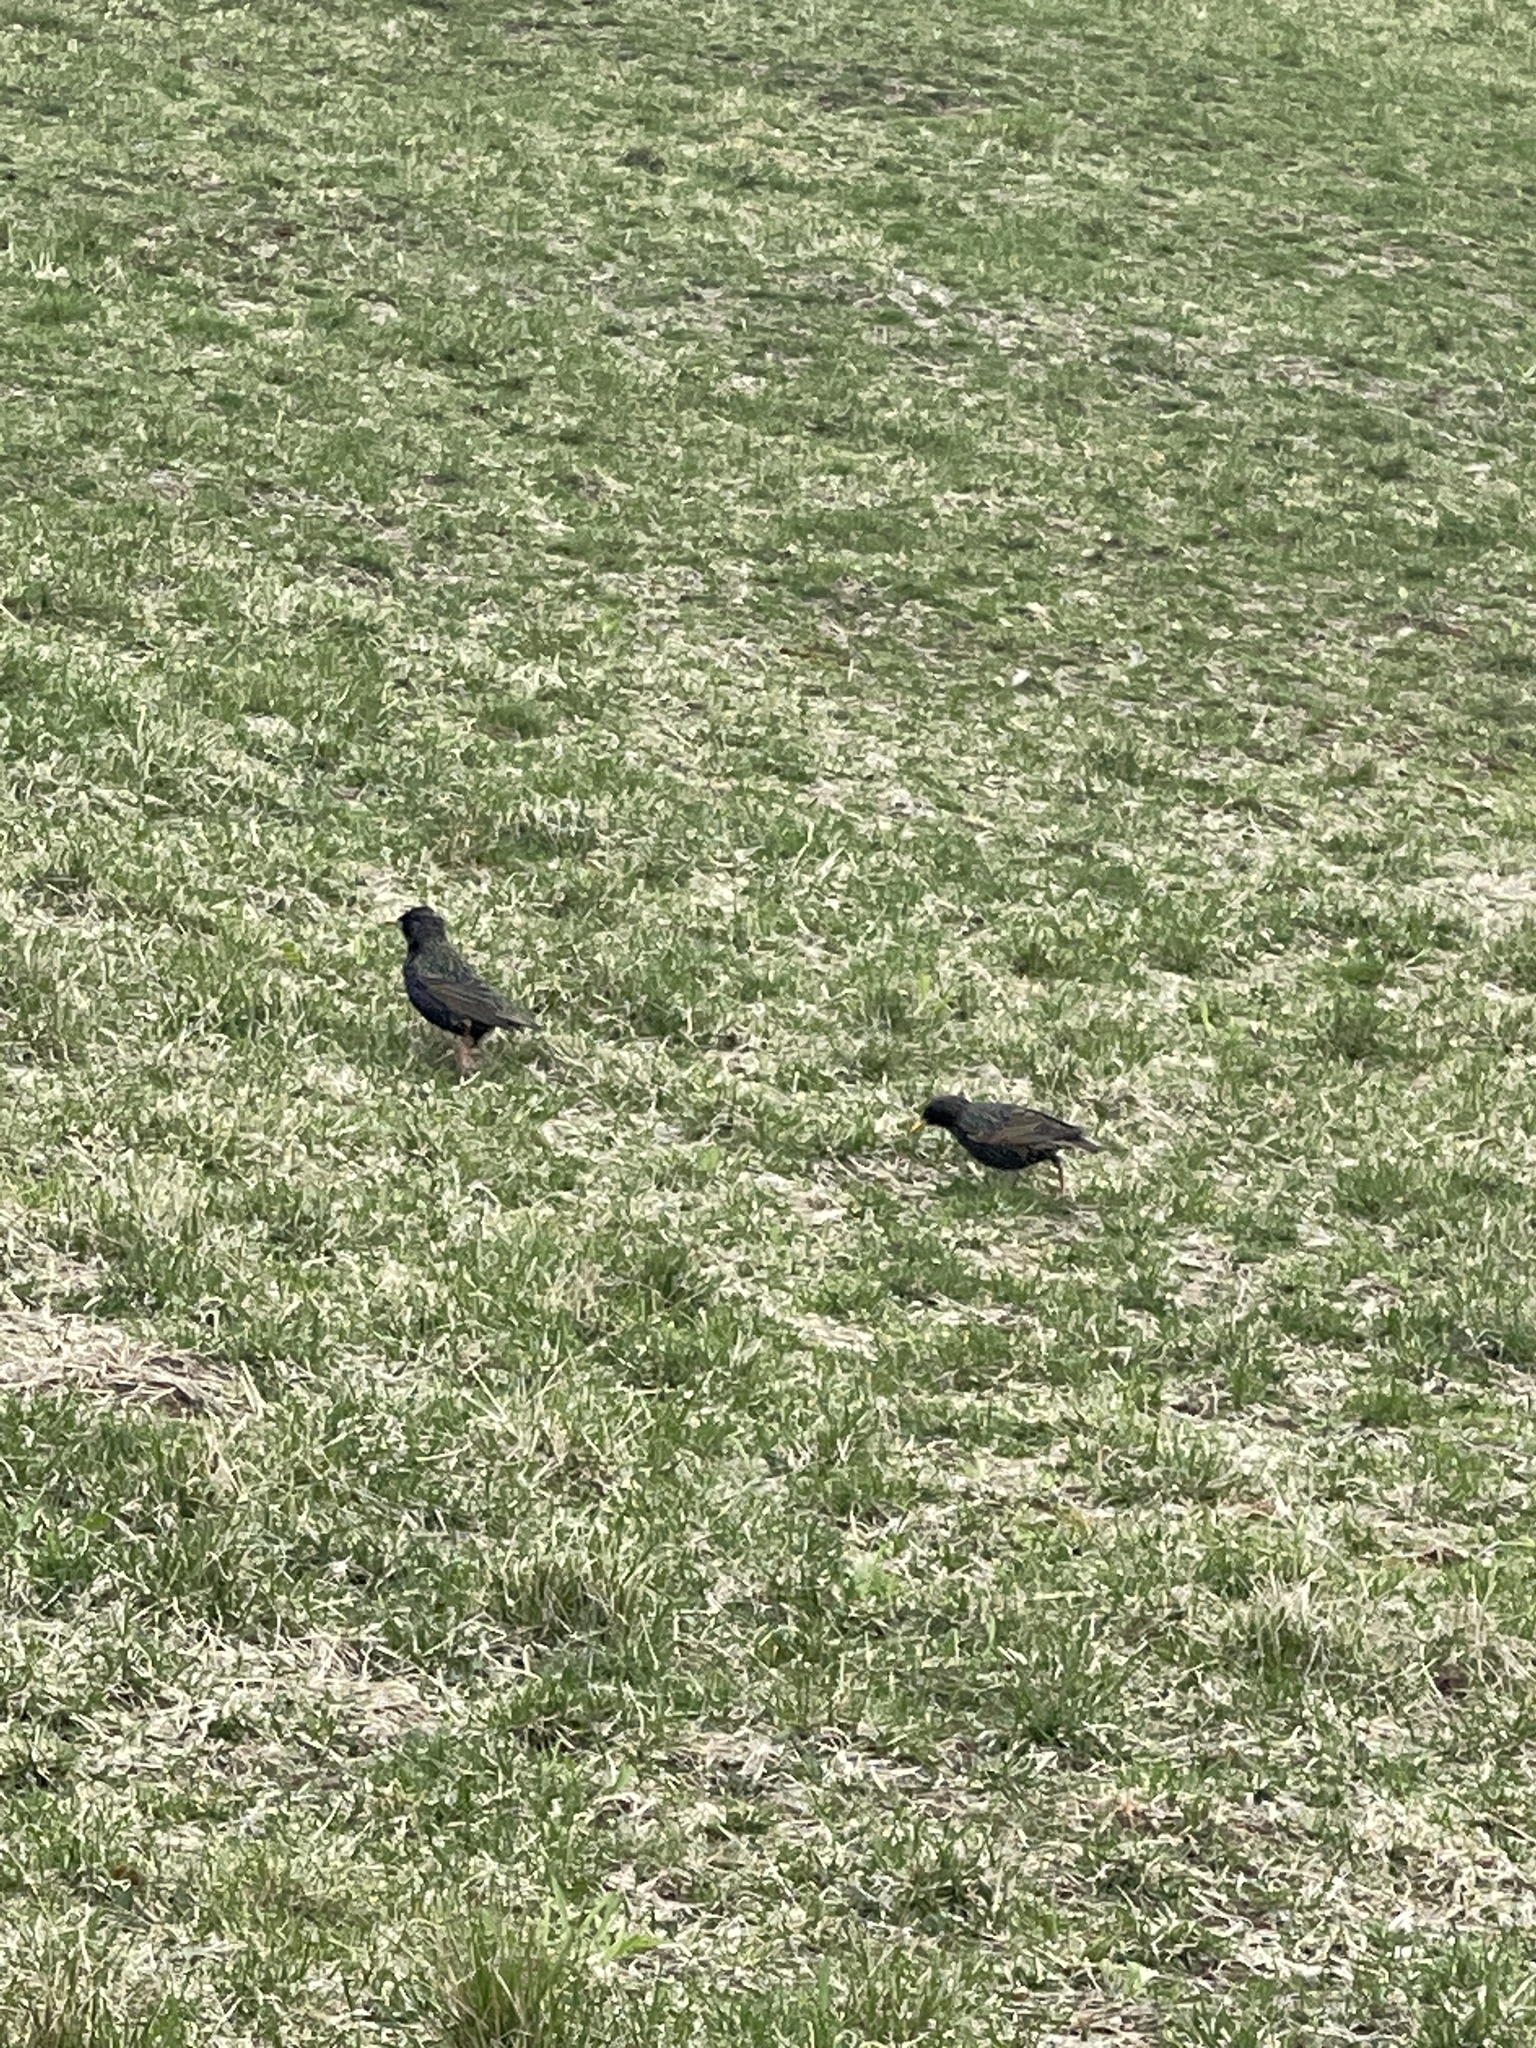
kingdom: Animalia
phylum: Chordata
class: Aves
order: Passeriformes
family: Sturnidae
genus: Sturnus
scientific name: Sturnus vulgaris
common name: Common starling
